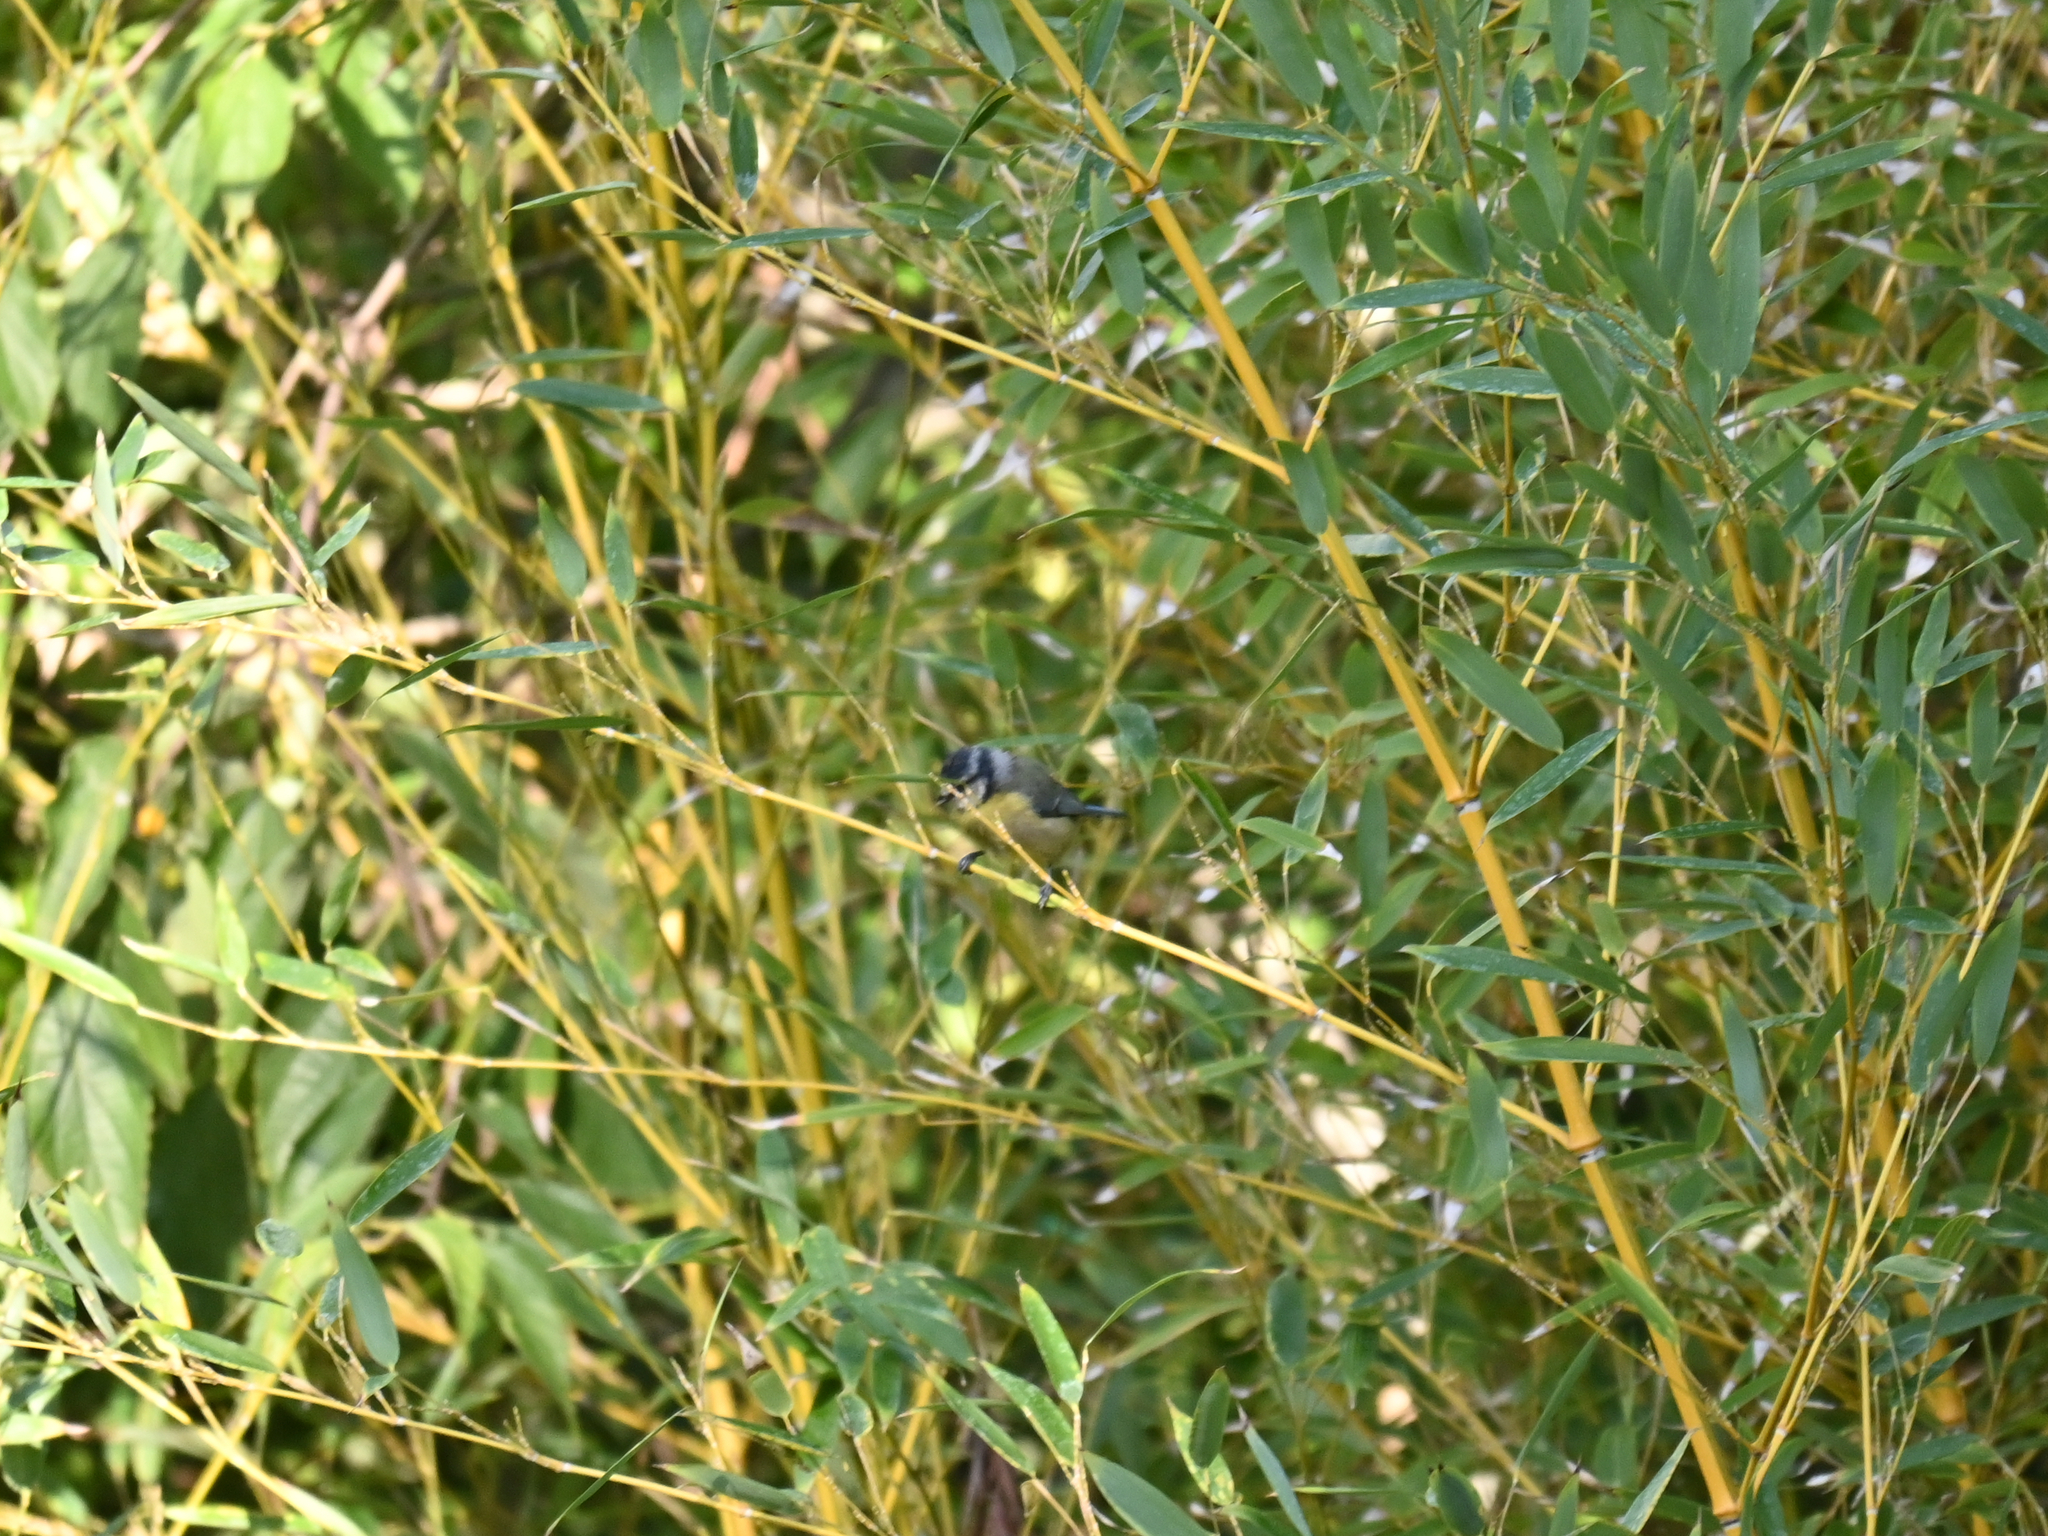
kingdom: Animalia
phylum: Chordata
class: Aves
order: Passeriformes
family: Paridae
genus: Cyanistes
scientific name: Cyanistes caeruleus
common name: Eurasian blue tit
